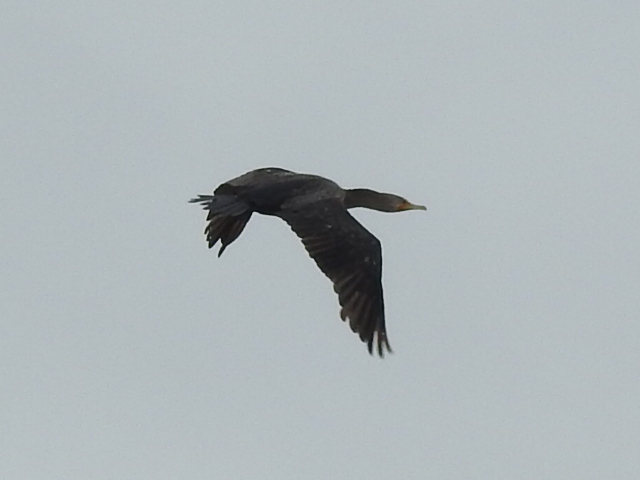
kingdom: Animalia
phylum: Chordata
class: Aves
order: Suliformes
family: Phalacrocoracidae
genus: Phalacrocorax
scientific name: Phalacrocorax auritus
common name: Double-crested cormorant
